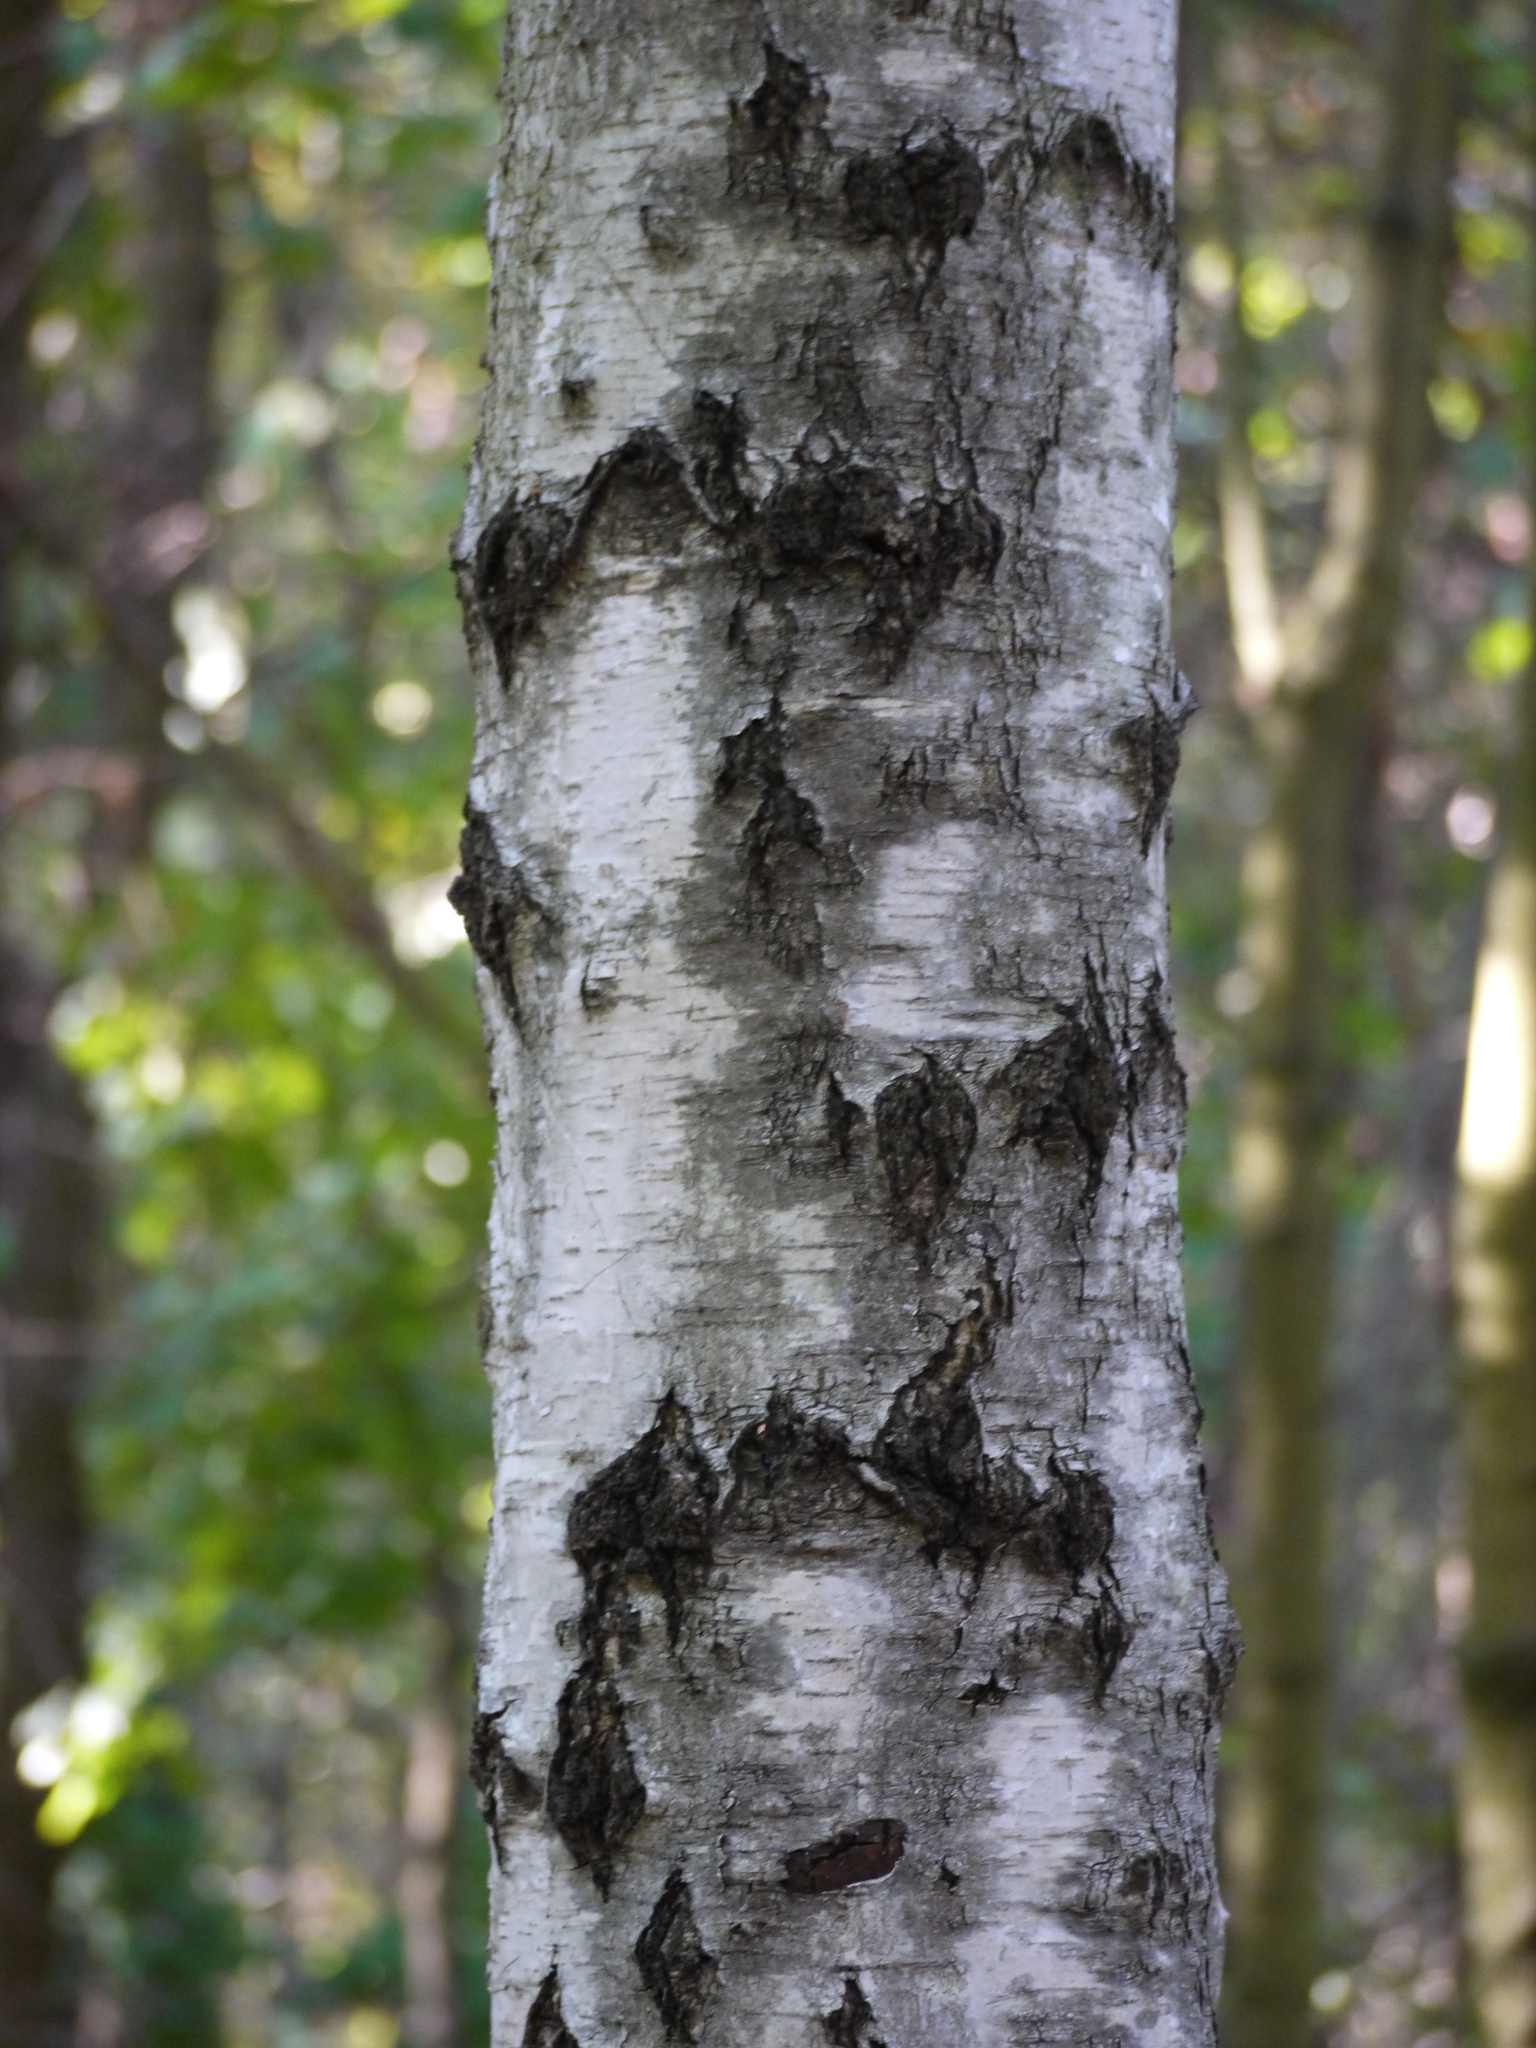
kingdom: Plantae
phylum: Tracheophyta
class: Magnoliopsida
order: Fagales
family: Betulaceae
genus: Betula
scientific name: Betula pendula
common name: Silver birch
